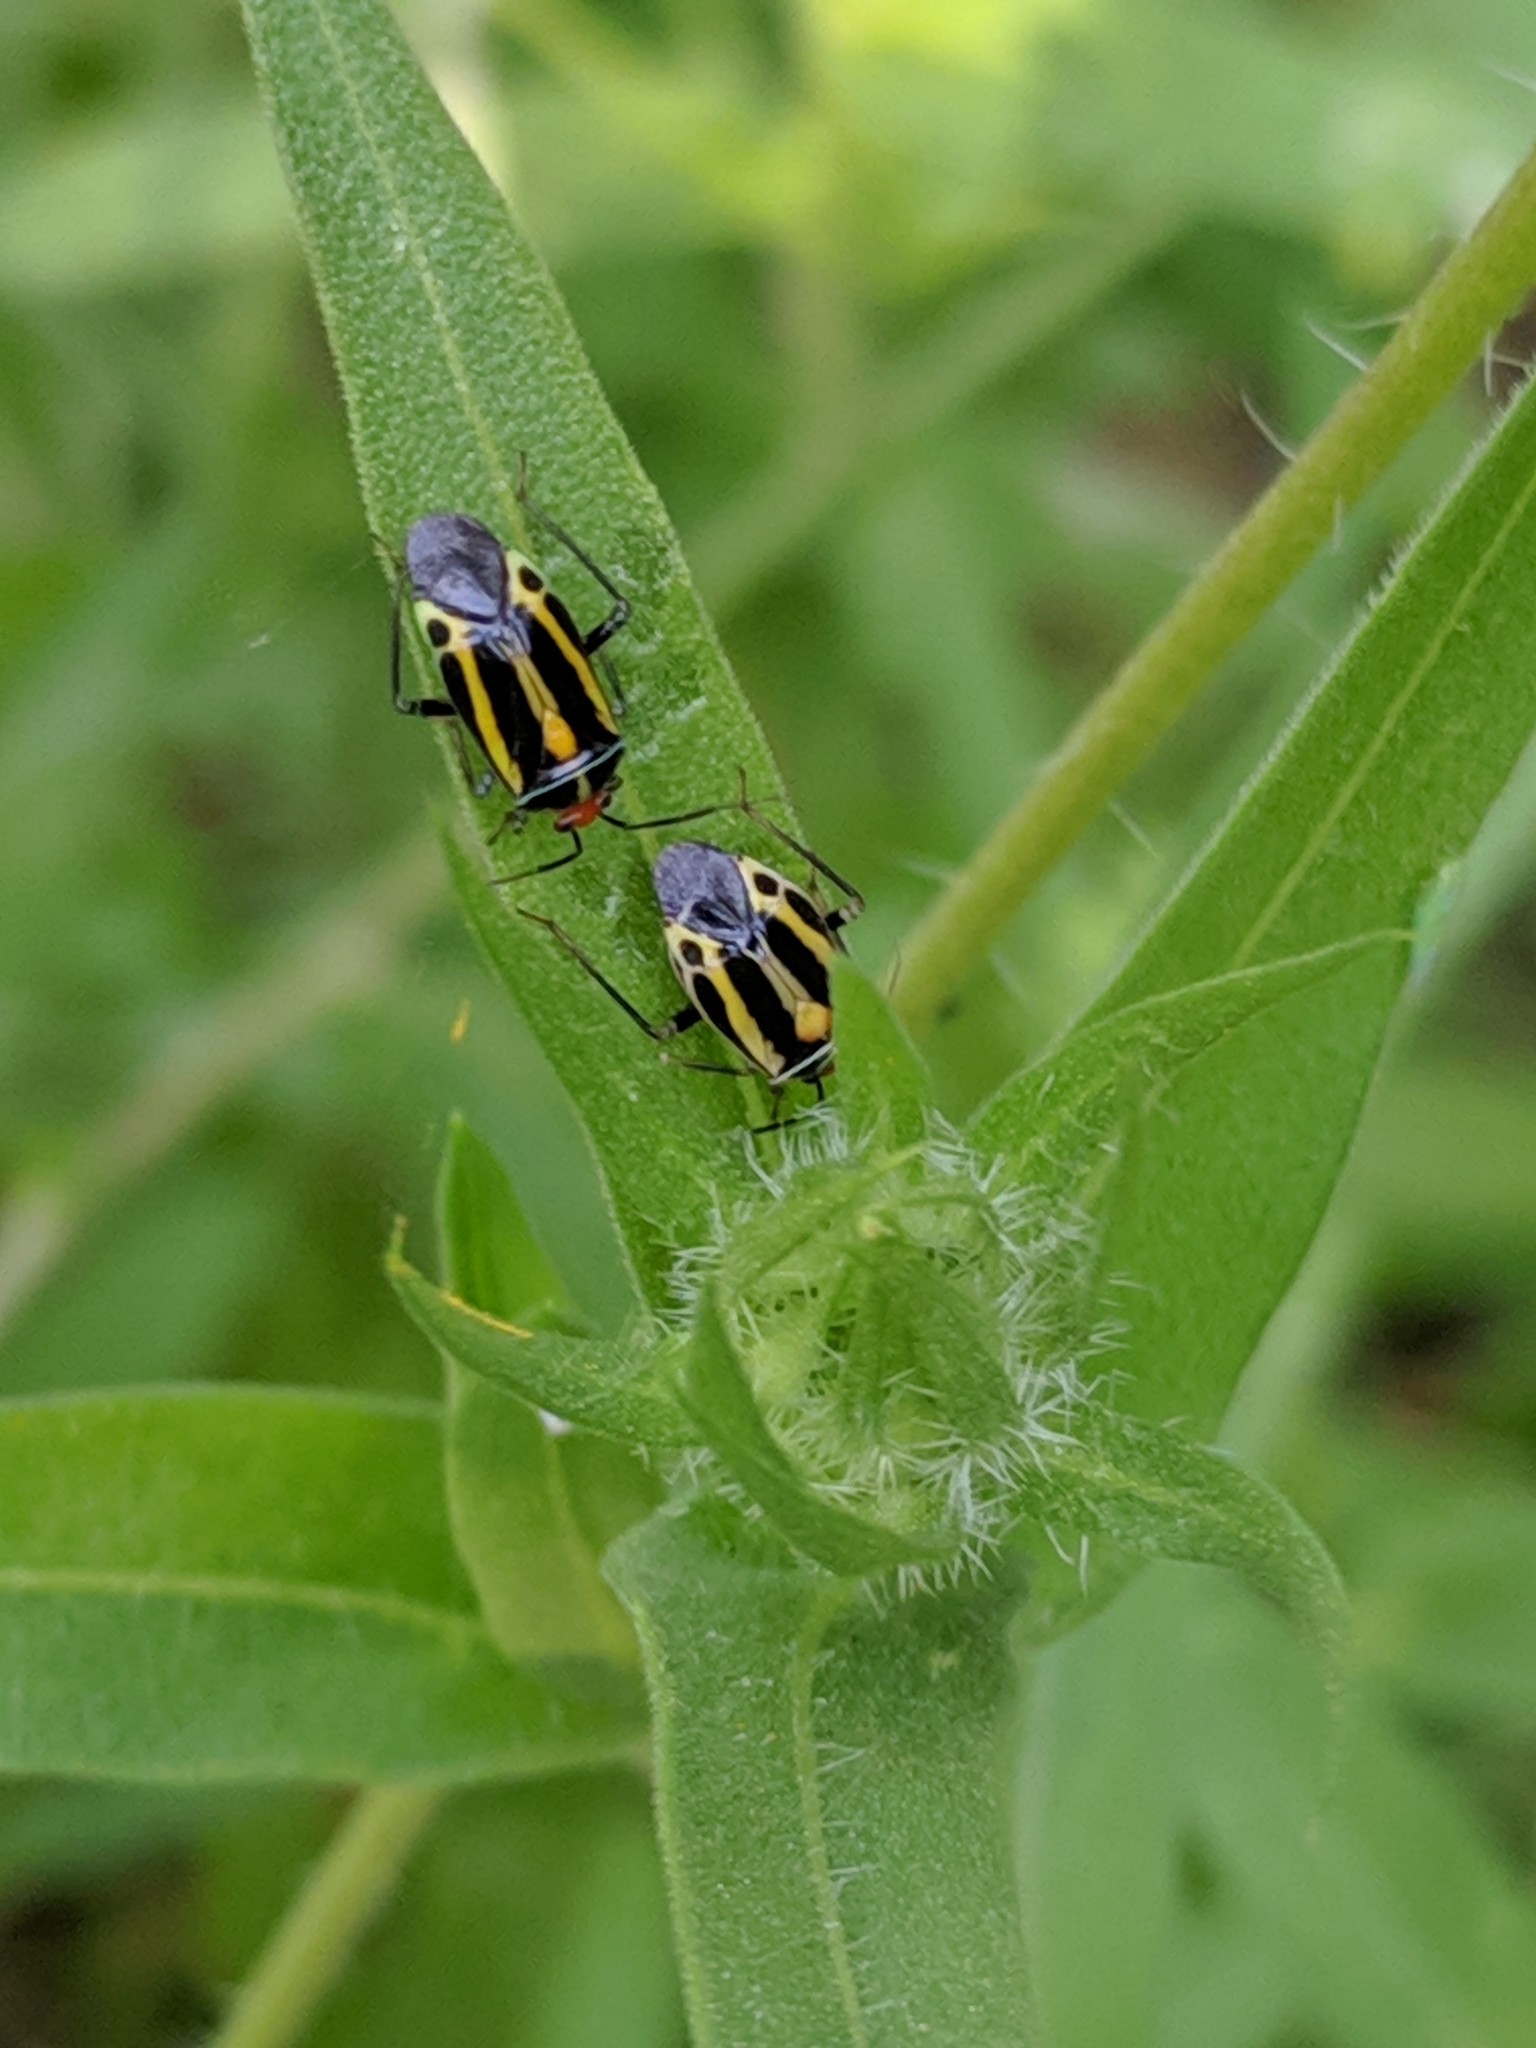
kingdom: Animalia
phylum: Arthropoda
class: Insecta
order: Hemiptera
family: Miridae
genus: Poecilocapsus
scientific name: Poecilocapsus lineatus
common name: Four-lined plant bug
